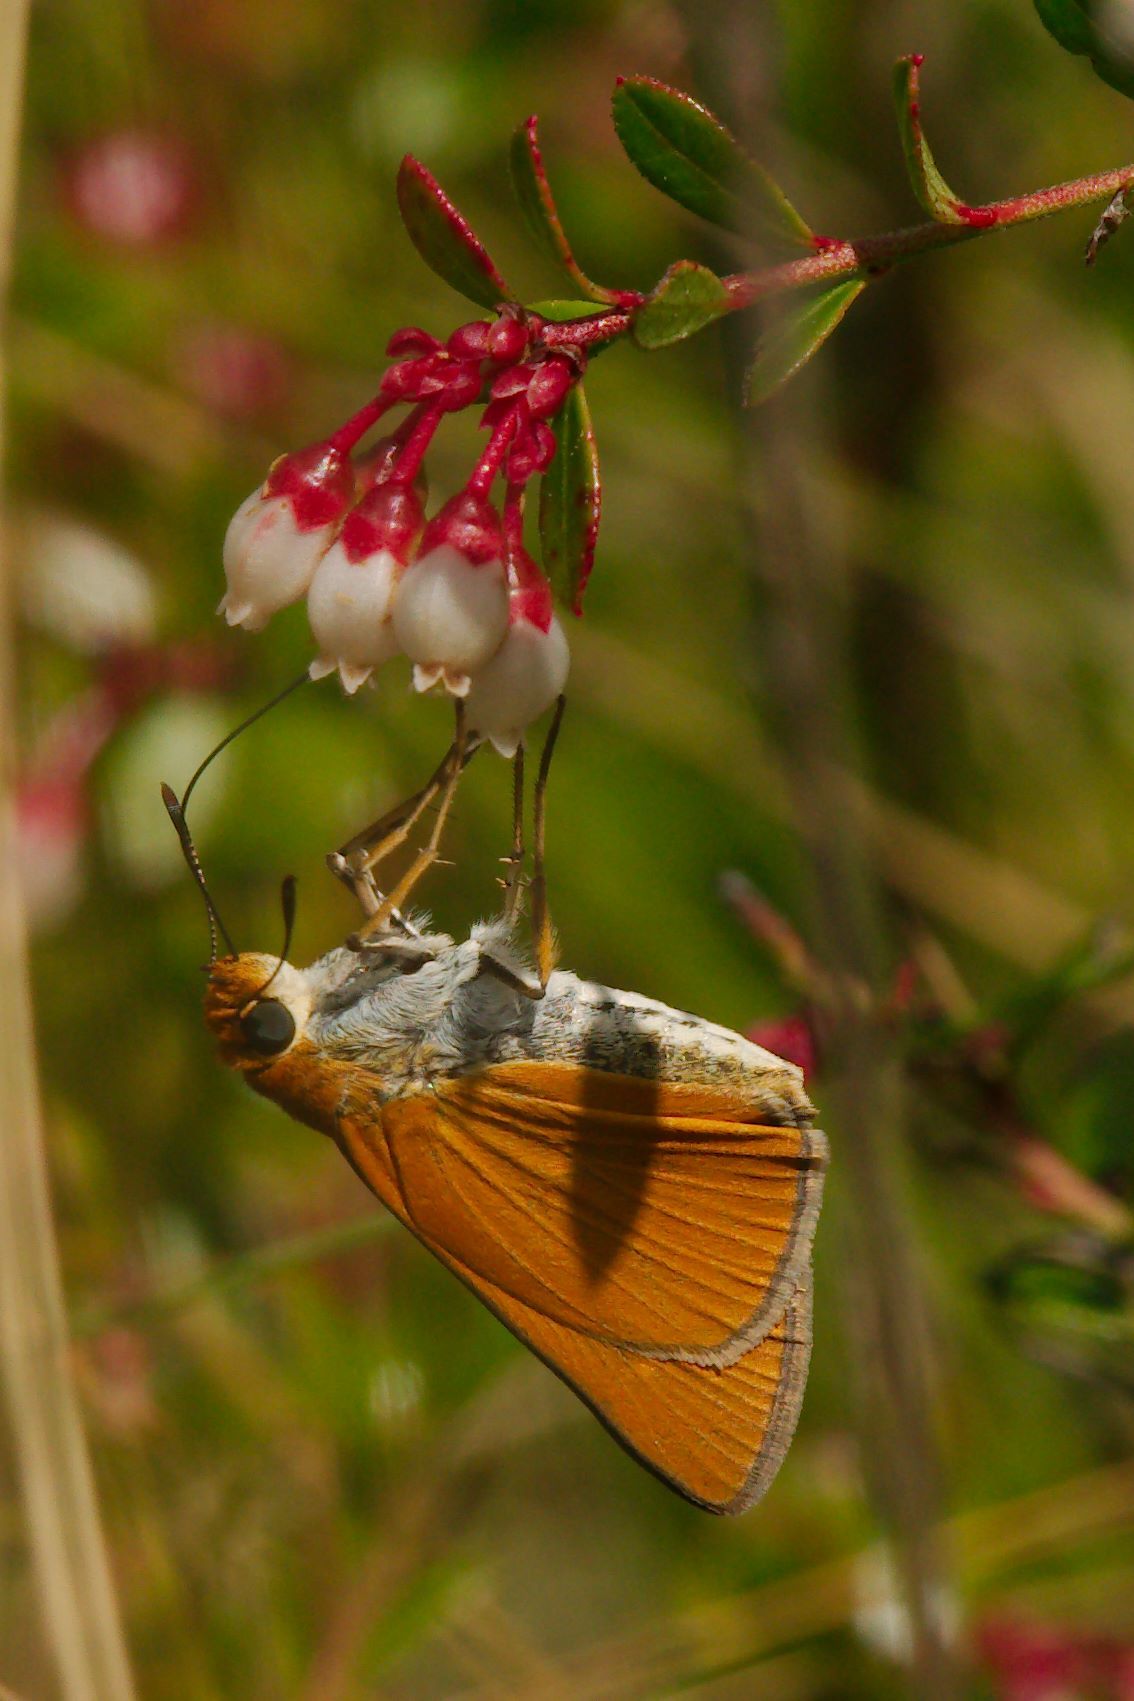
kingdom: Animalia
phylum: Arthropoda
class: Insecta
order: Lepidoptera
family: Hesperiidae
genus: Euphyes
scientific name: Euphyes arpa
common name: Palmetto skipper
